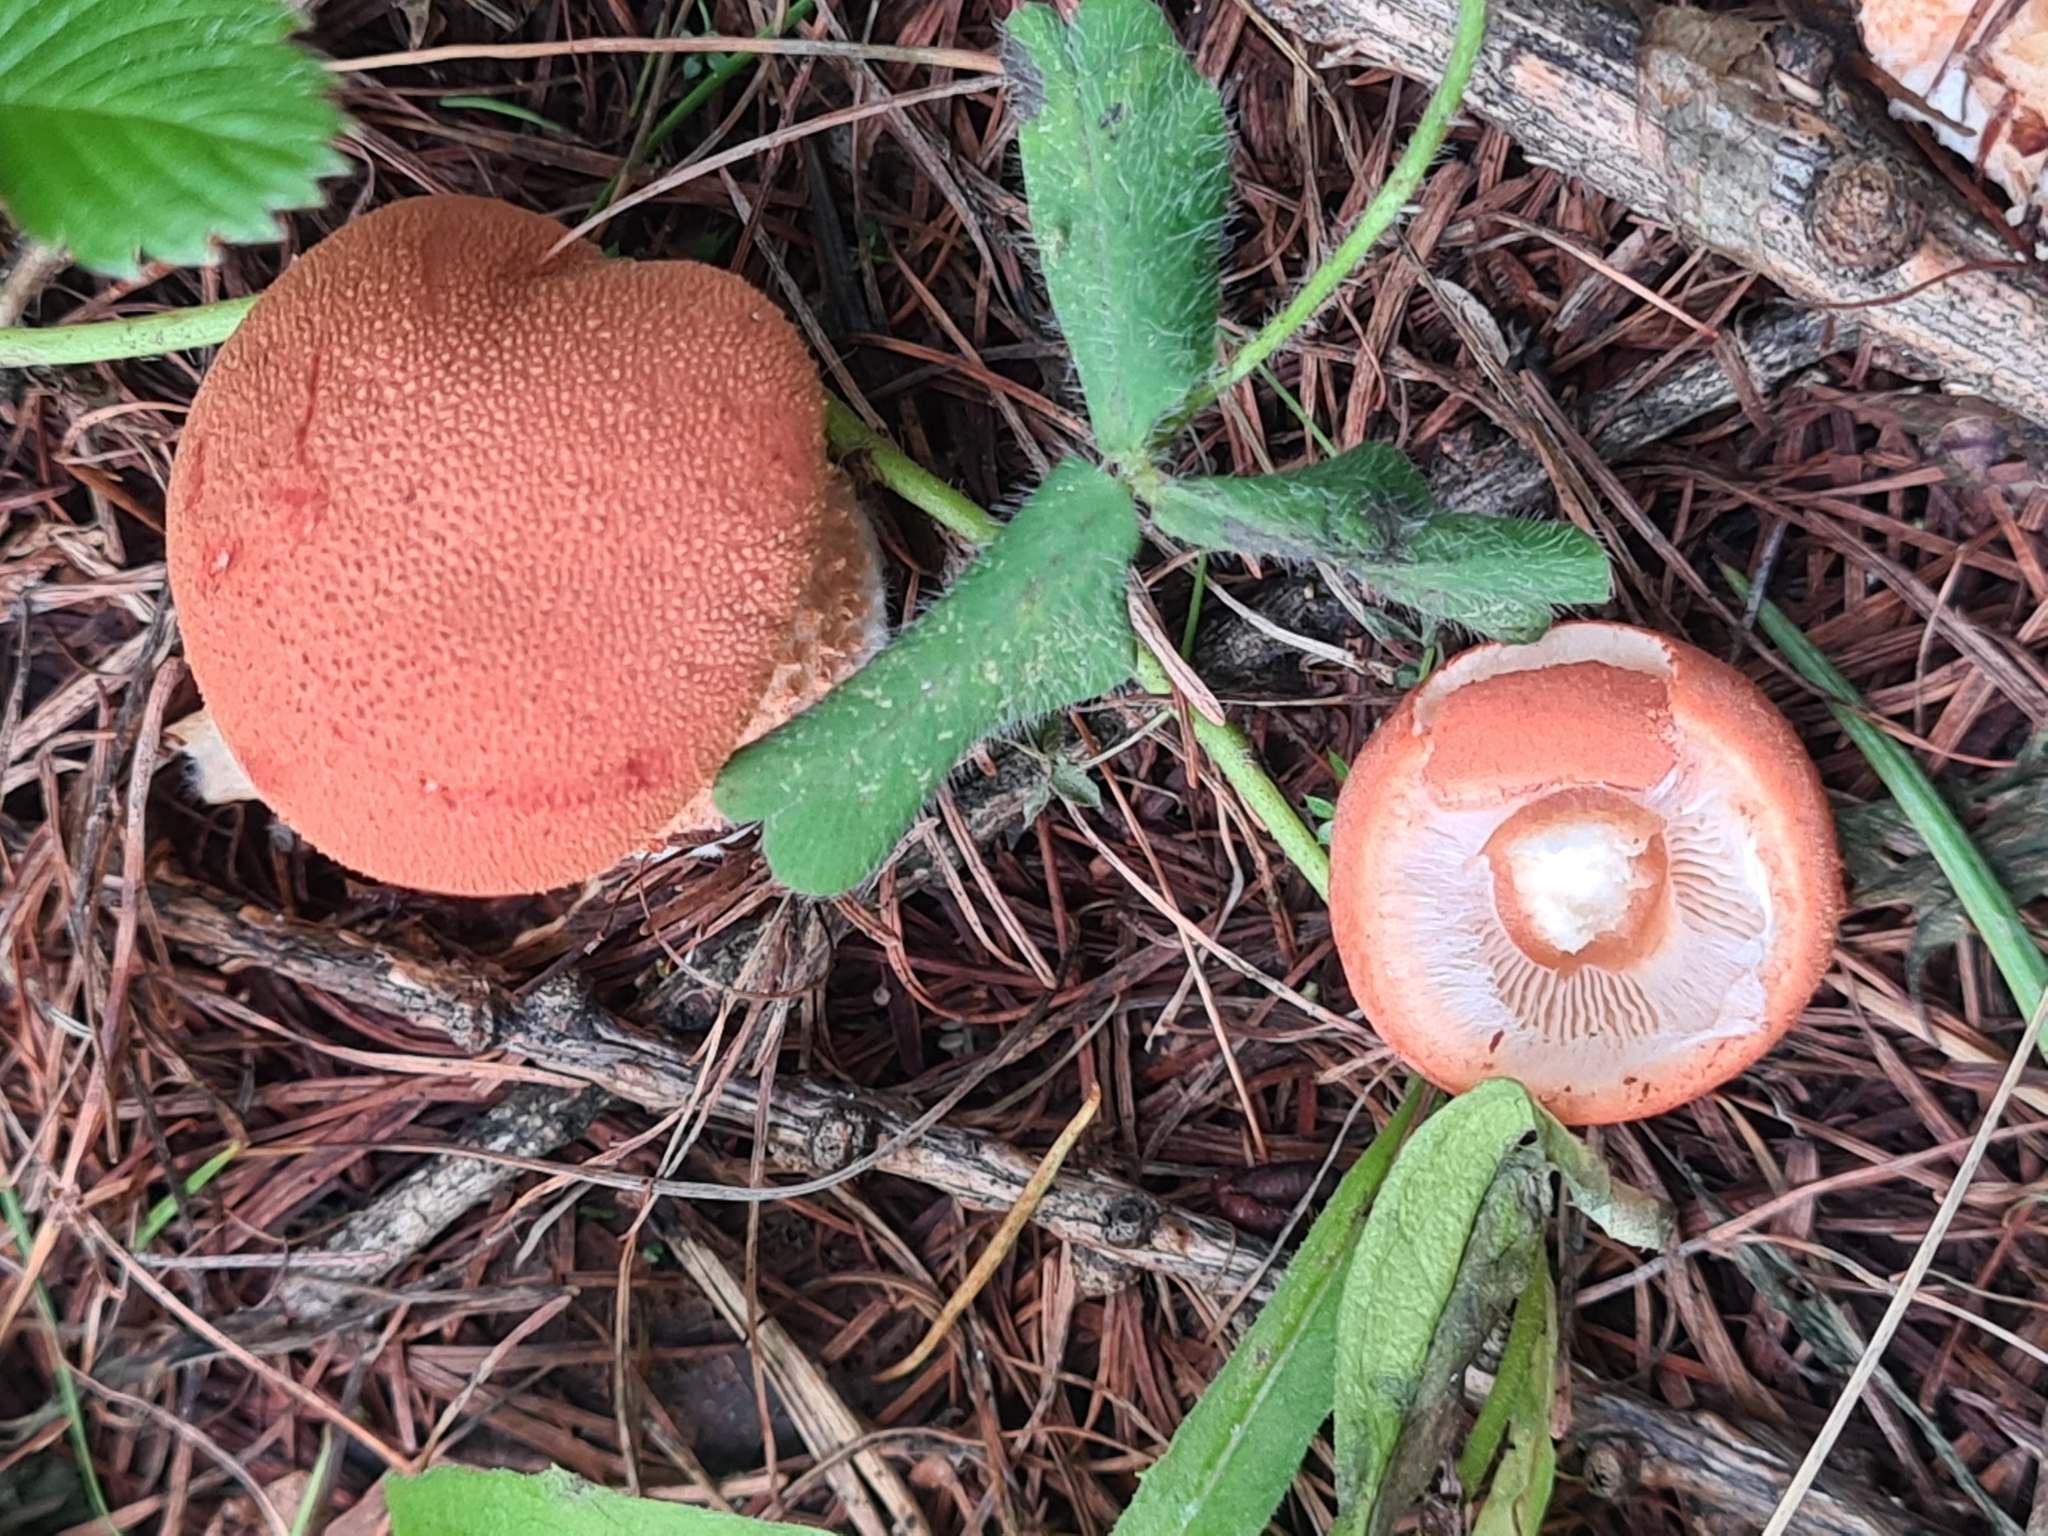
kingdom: Fungi
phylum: Basidiomycota
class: Agaricomycetes
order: Agaricales
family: Agaricaceae
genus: Cystodermella
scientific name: Cystodermella cinnabarina
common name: Cinnabar powdercap
